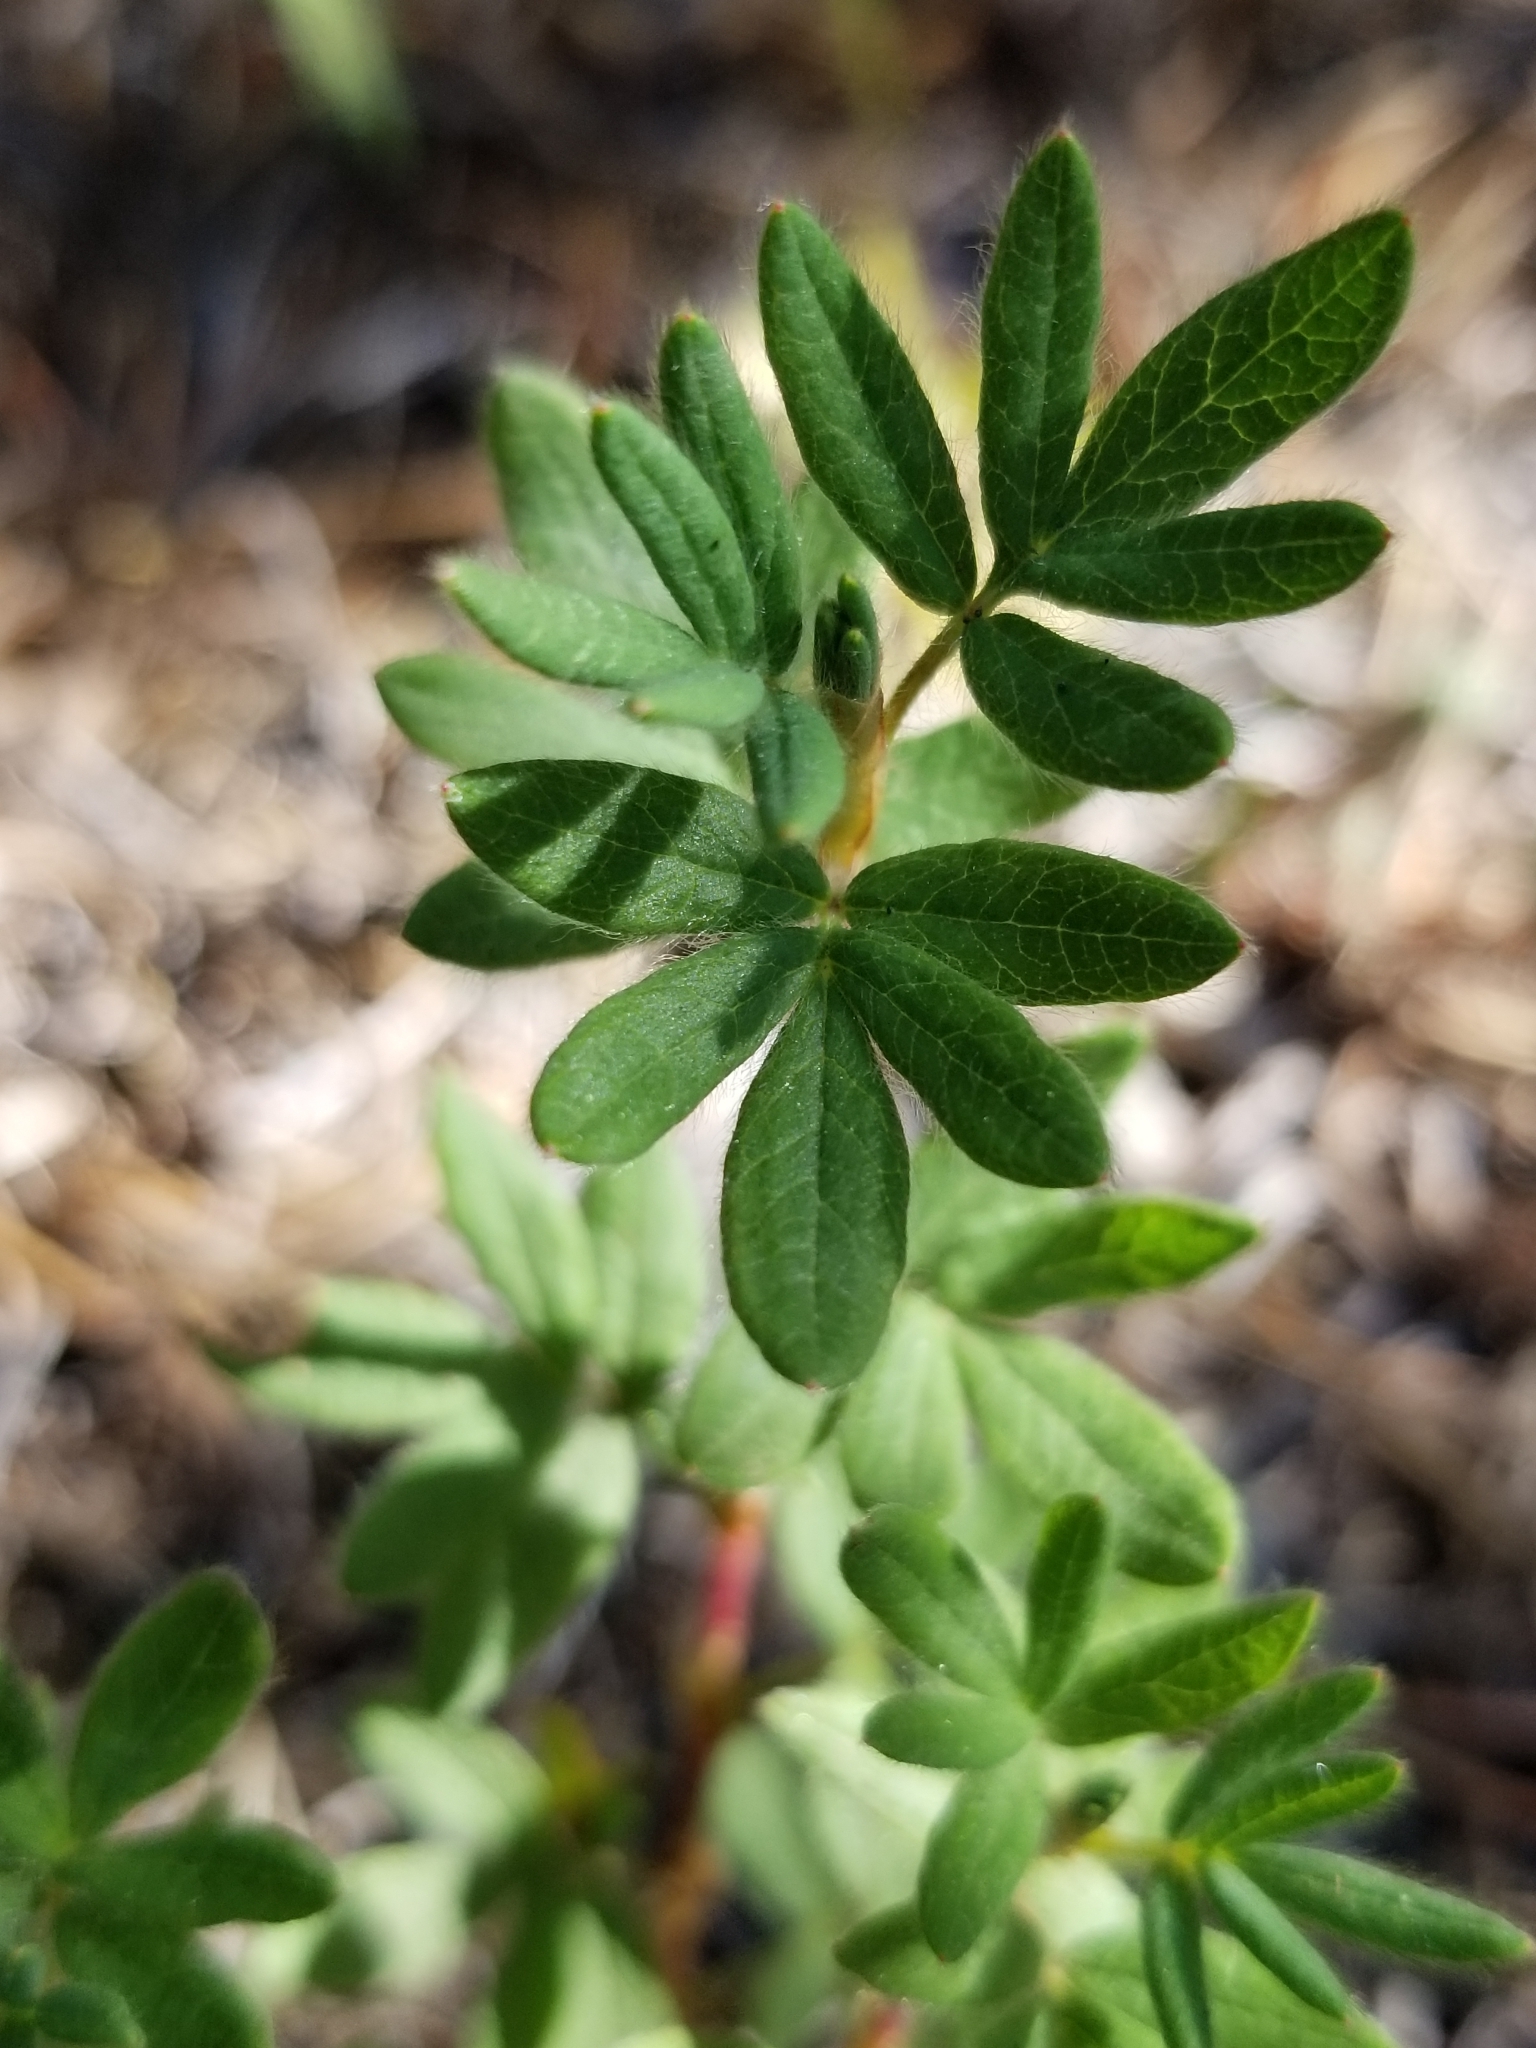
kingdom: Plantae
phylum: Tracheophyta
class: Magnoliopsida
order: Rosales
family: Rosaceae
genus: Dasiphora
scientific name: Dasiphora fruticosa
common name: Shrubby cinquefoil
